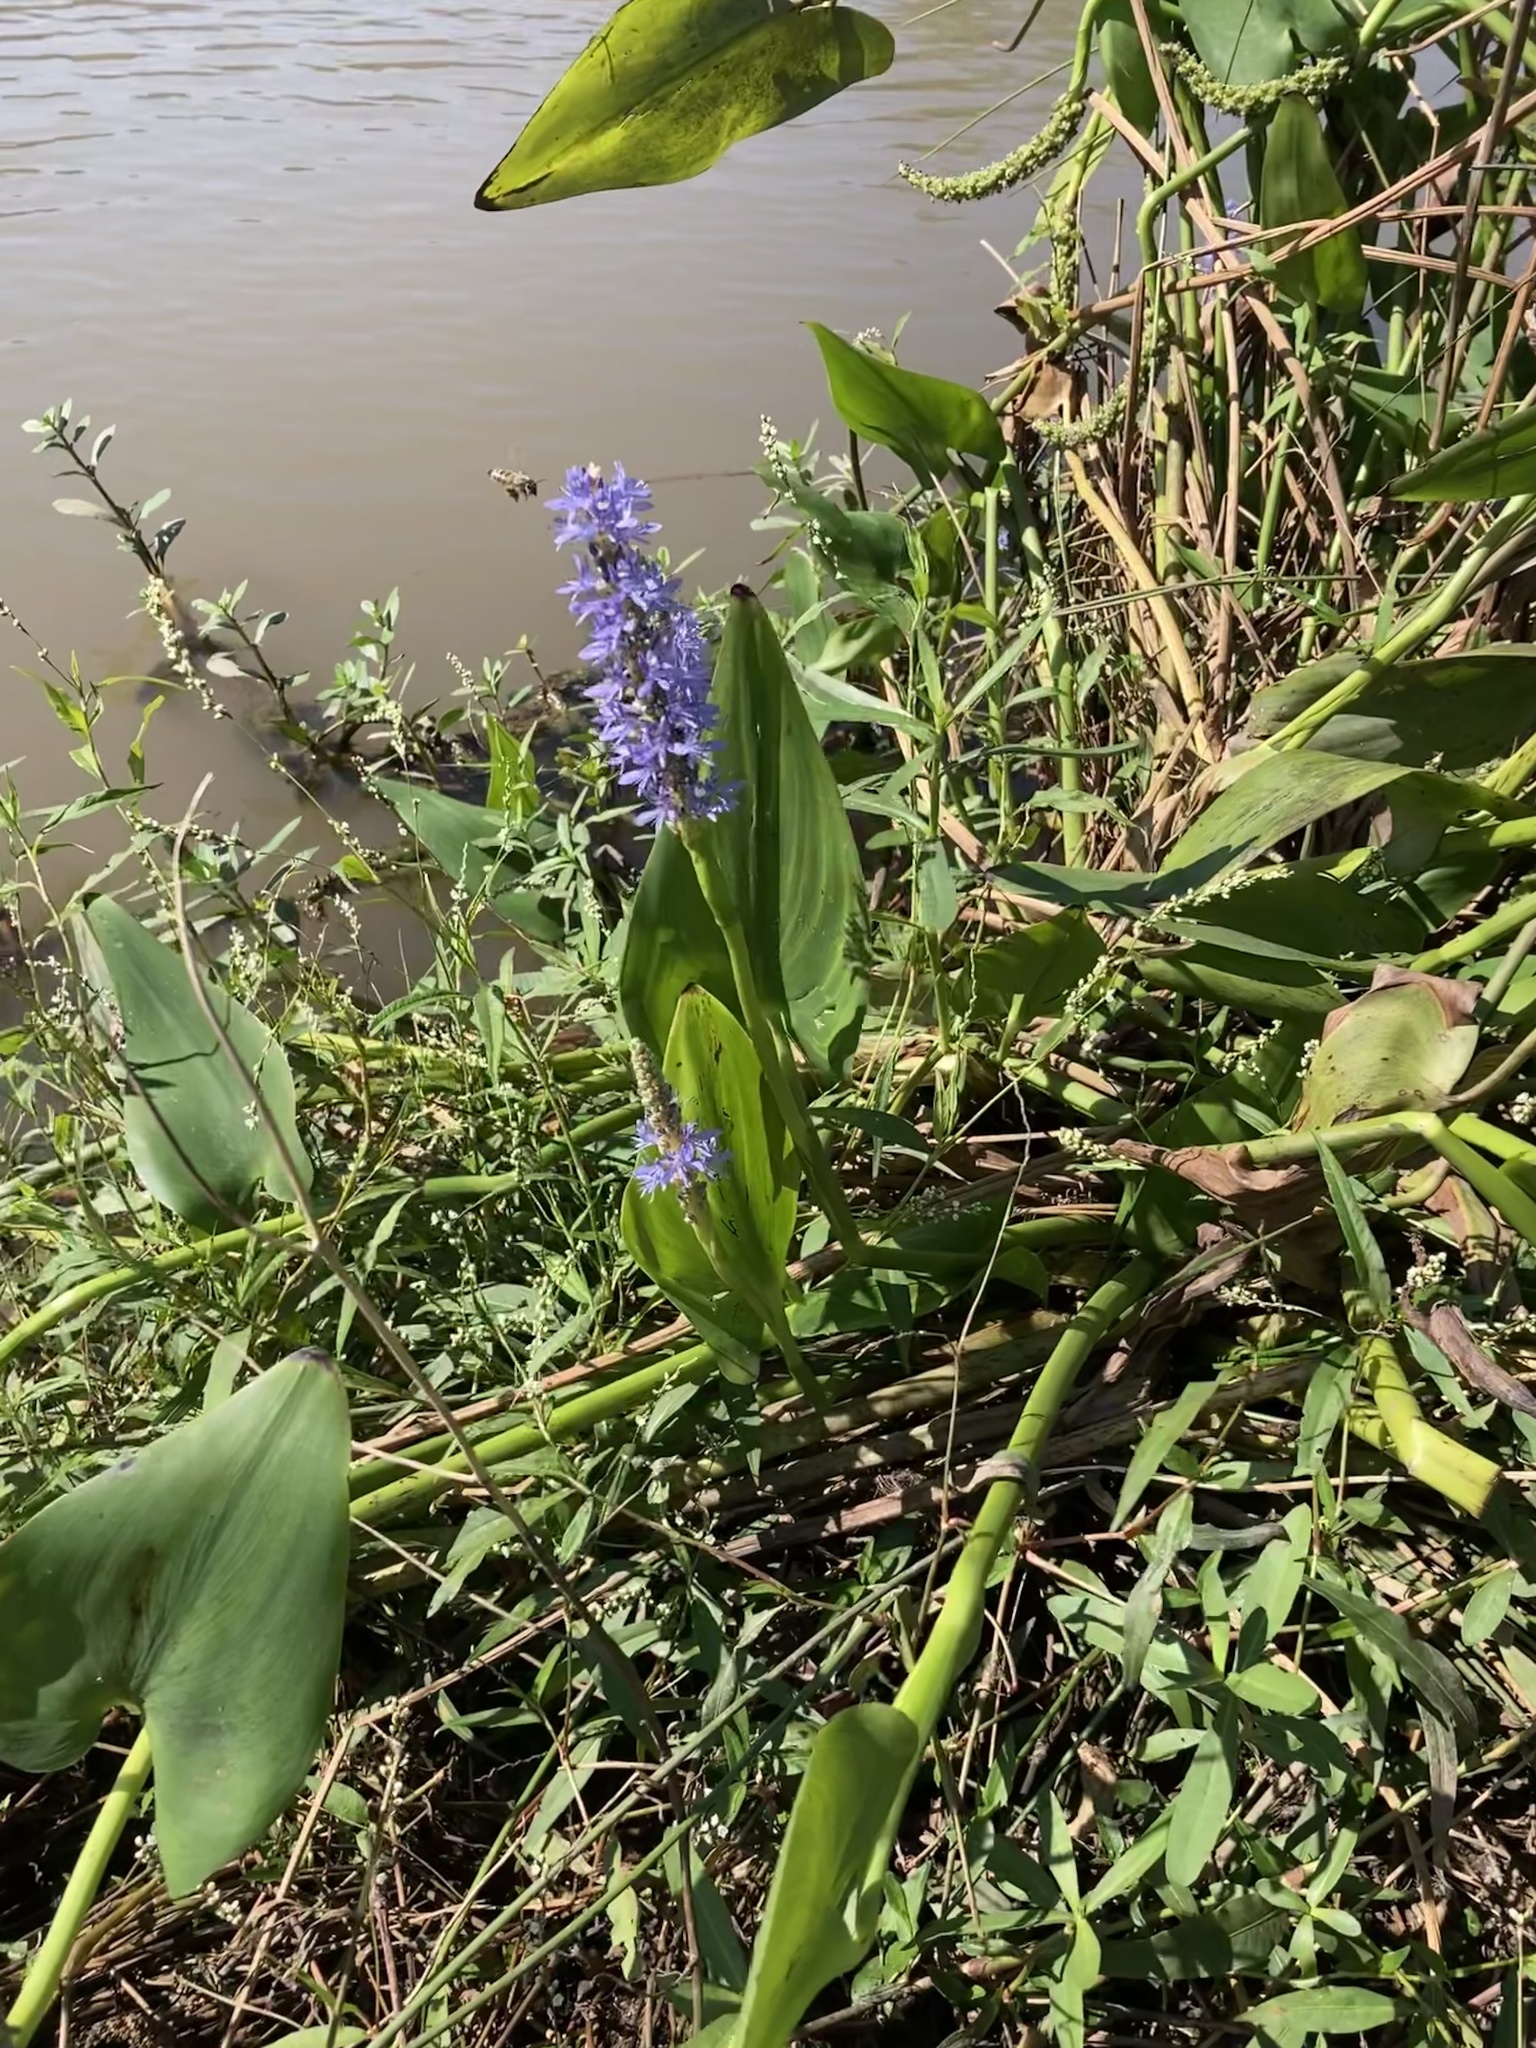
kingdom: Animalia
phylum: Arthropoda
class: Insecta
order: Hymenoptera
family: Apidae
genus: Apis
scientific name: Apis mellifera
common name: Honey bee
